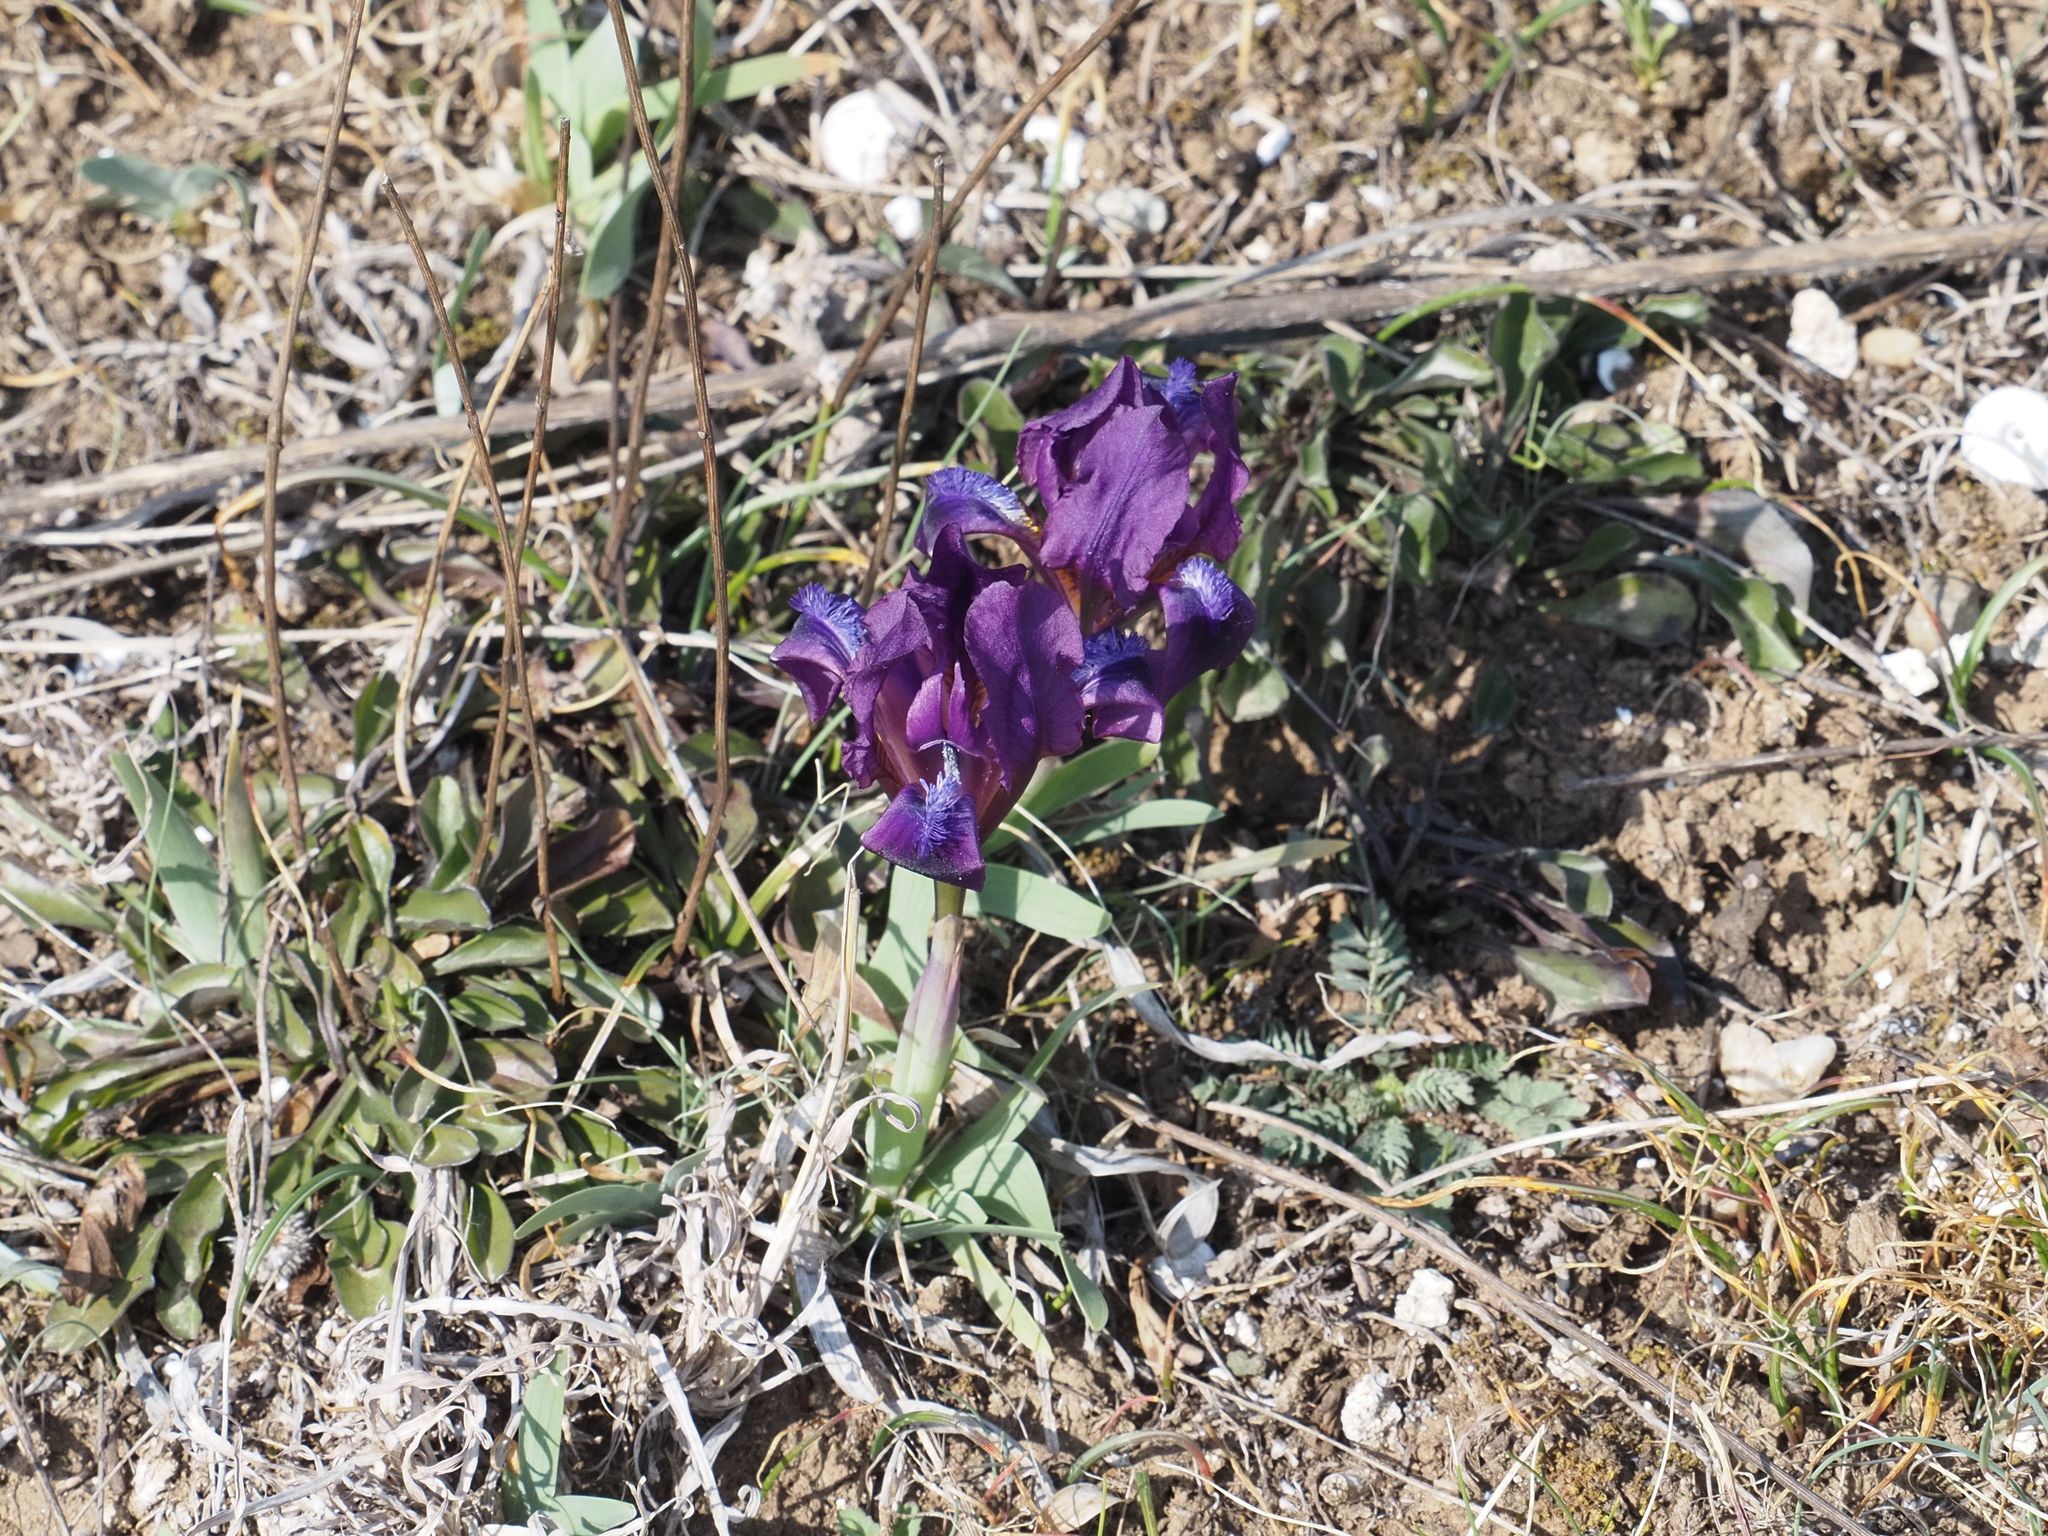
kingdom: Plantae
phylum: Tracheophyta
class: Liliopsida
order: Asparagales
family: Iridaceae
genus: Iris
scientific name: Iris pumila
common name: Dwarf iris
